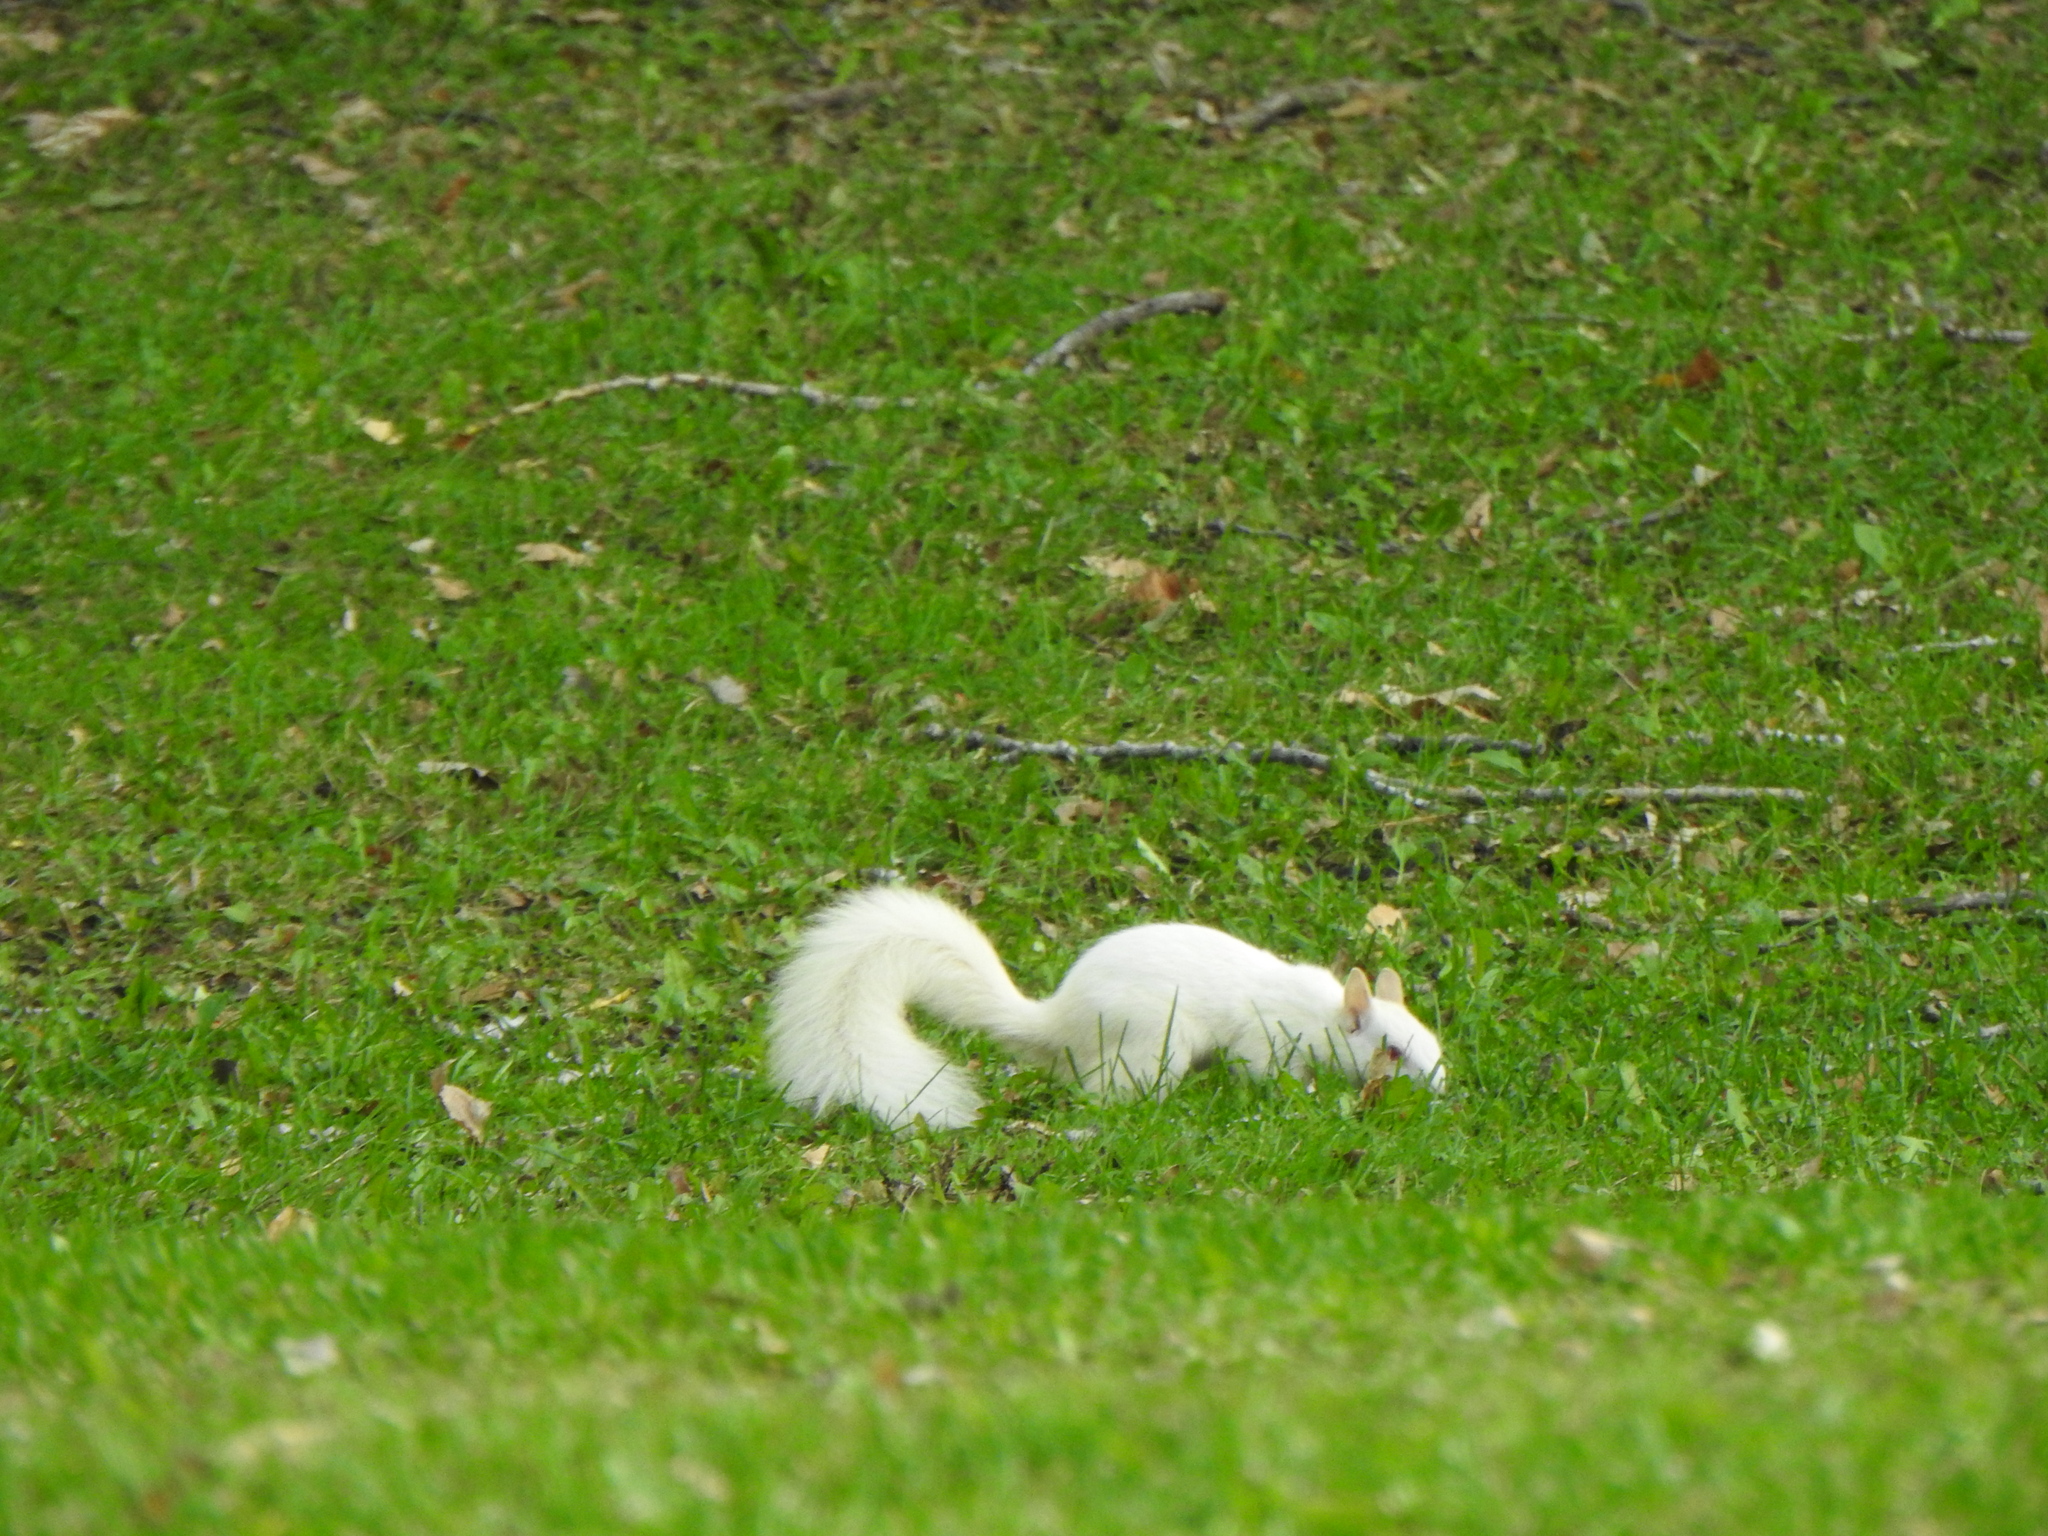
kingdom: Animalia
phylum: Chordata
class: Mammalia
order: Rodentia
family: Sciuridae
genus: Sciurus
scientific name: Sciurus carolinensis
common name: Eastern gray squirrel
